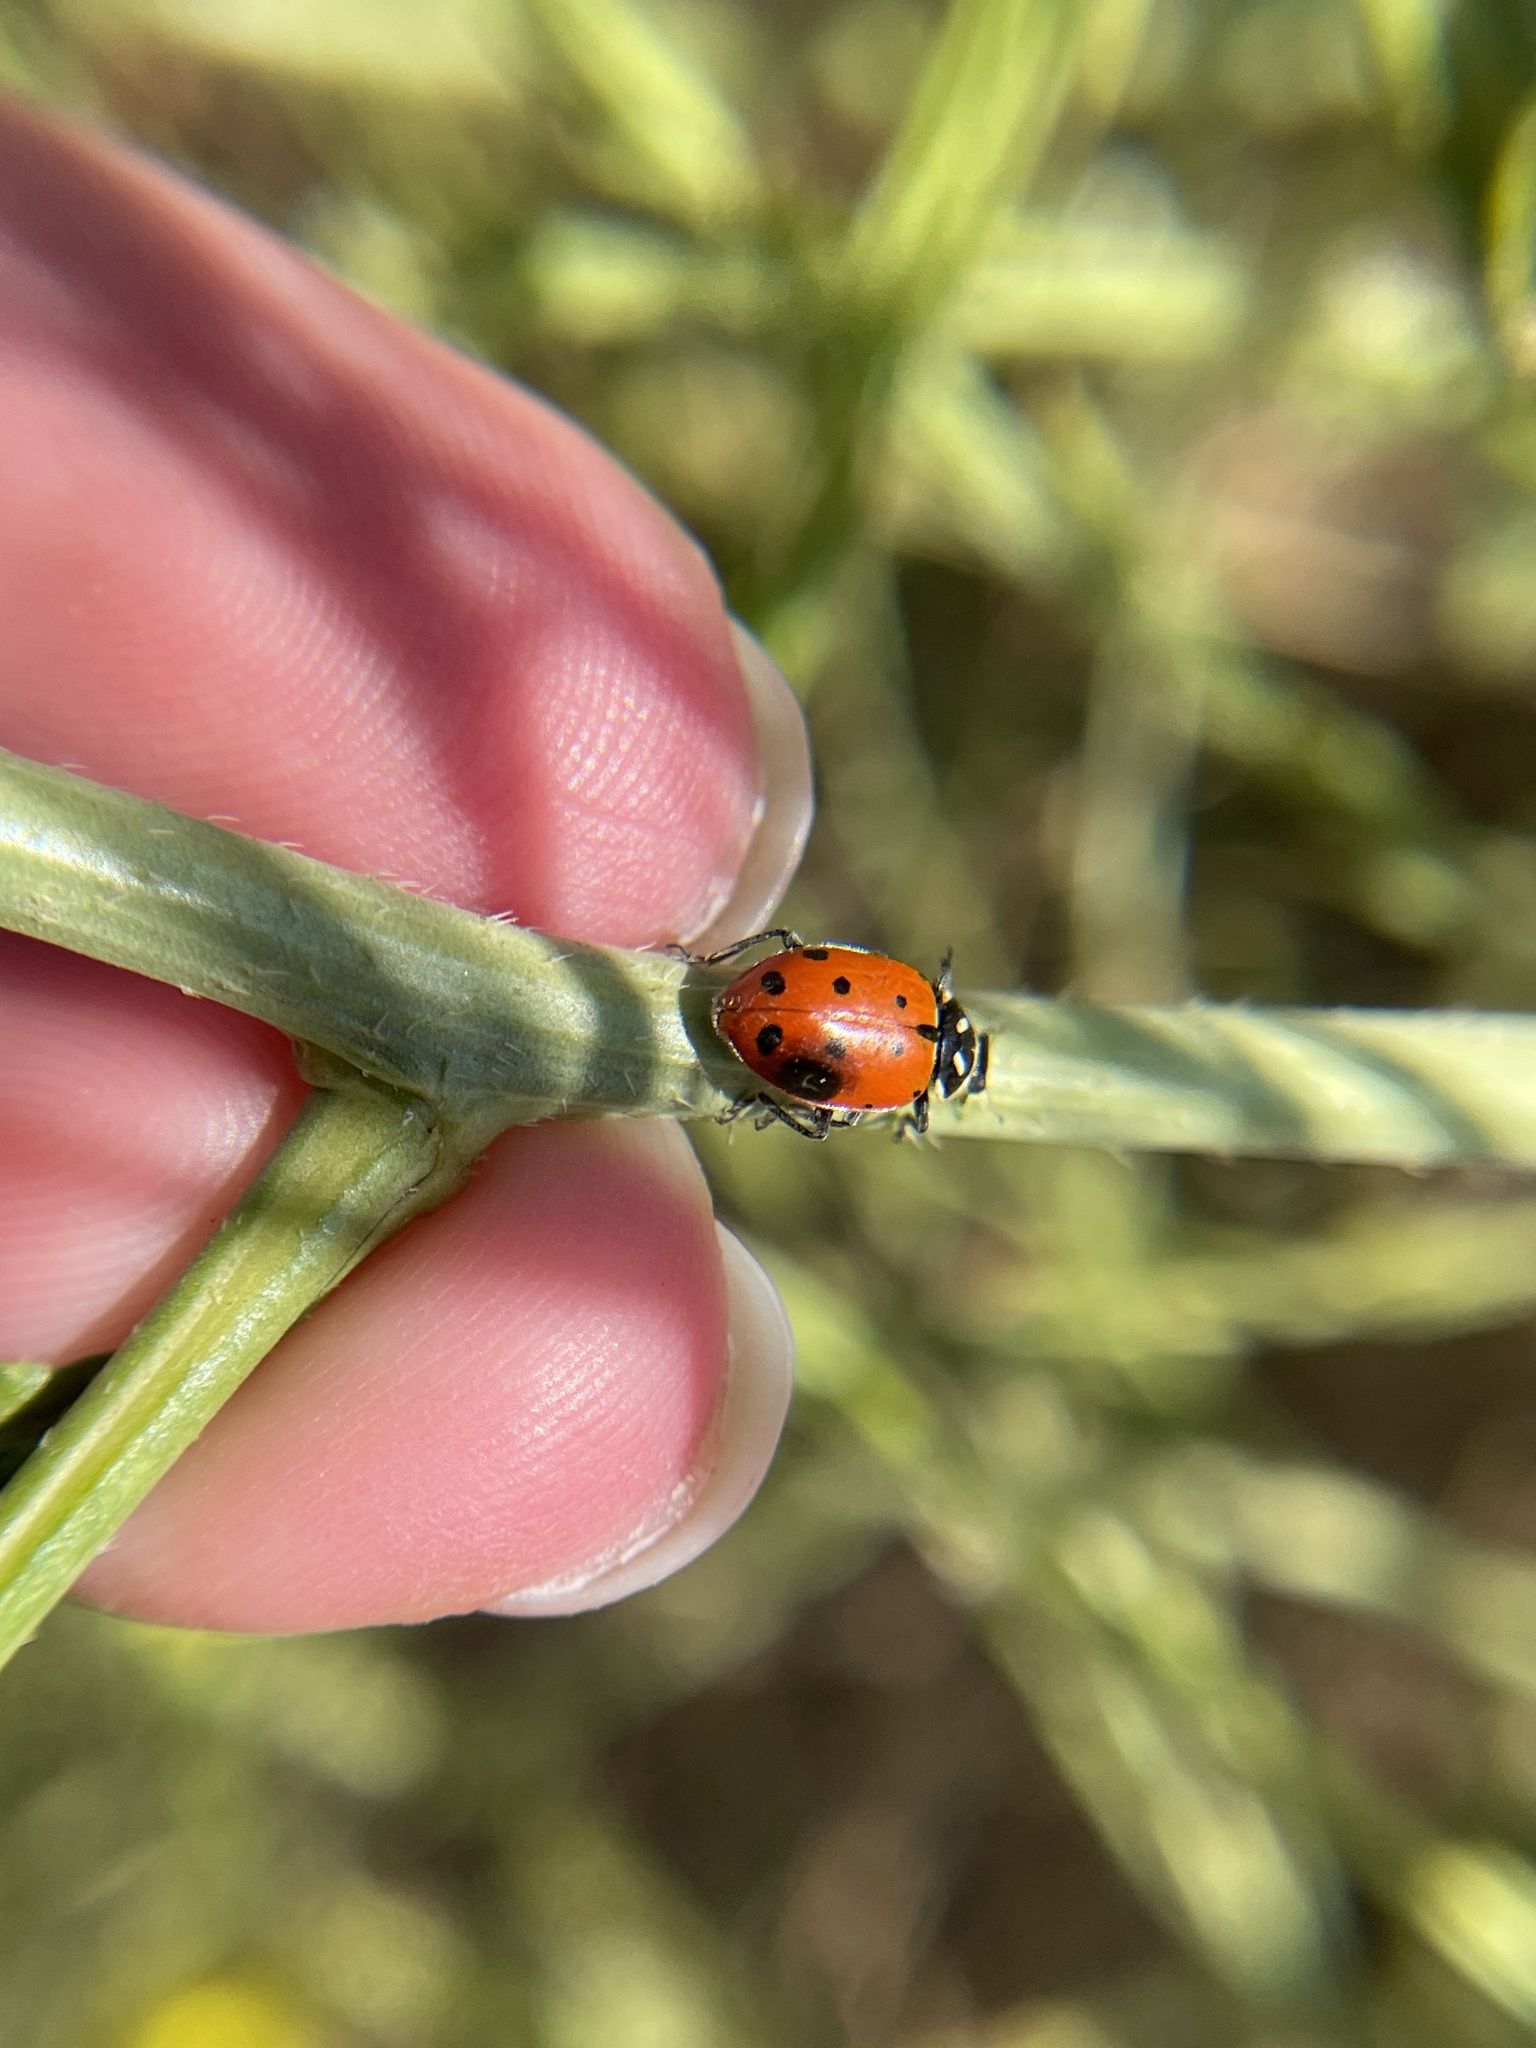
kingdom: Animalia
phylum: Arthropoda
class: Insecta
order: Coleoptera
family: Coccinellidae
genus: Hippodamia
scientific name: Hippodamia convergens
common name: Convergent lady beetle
